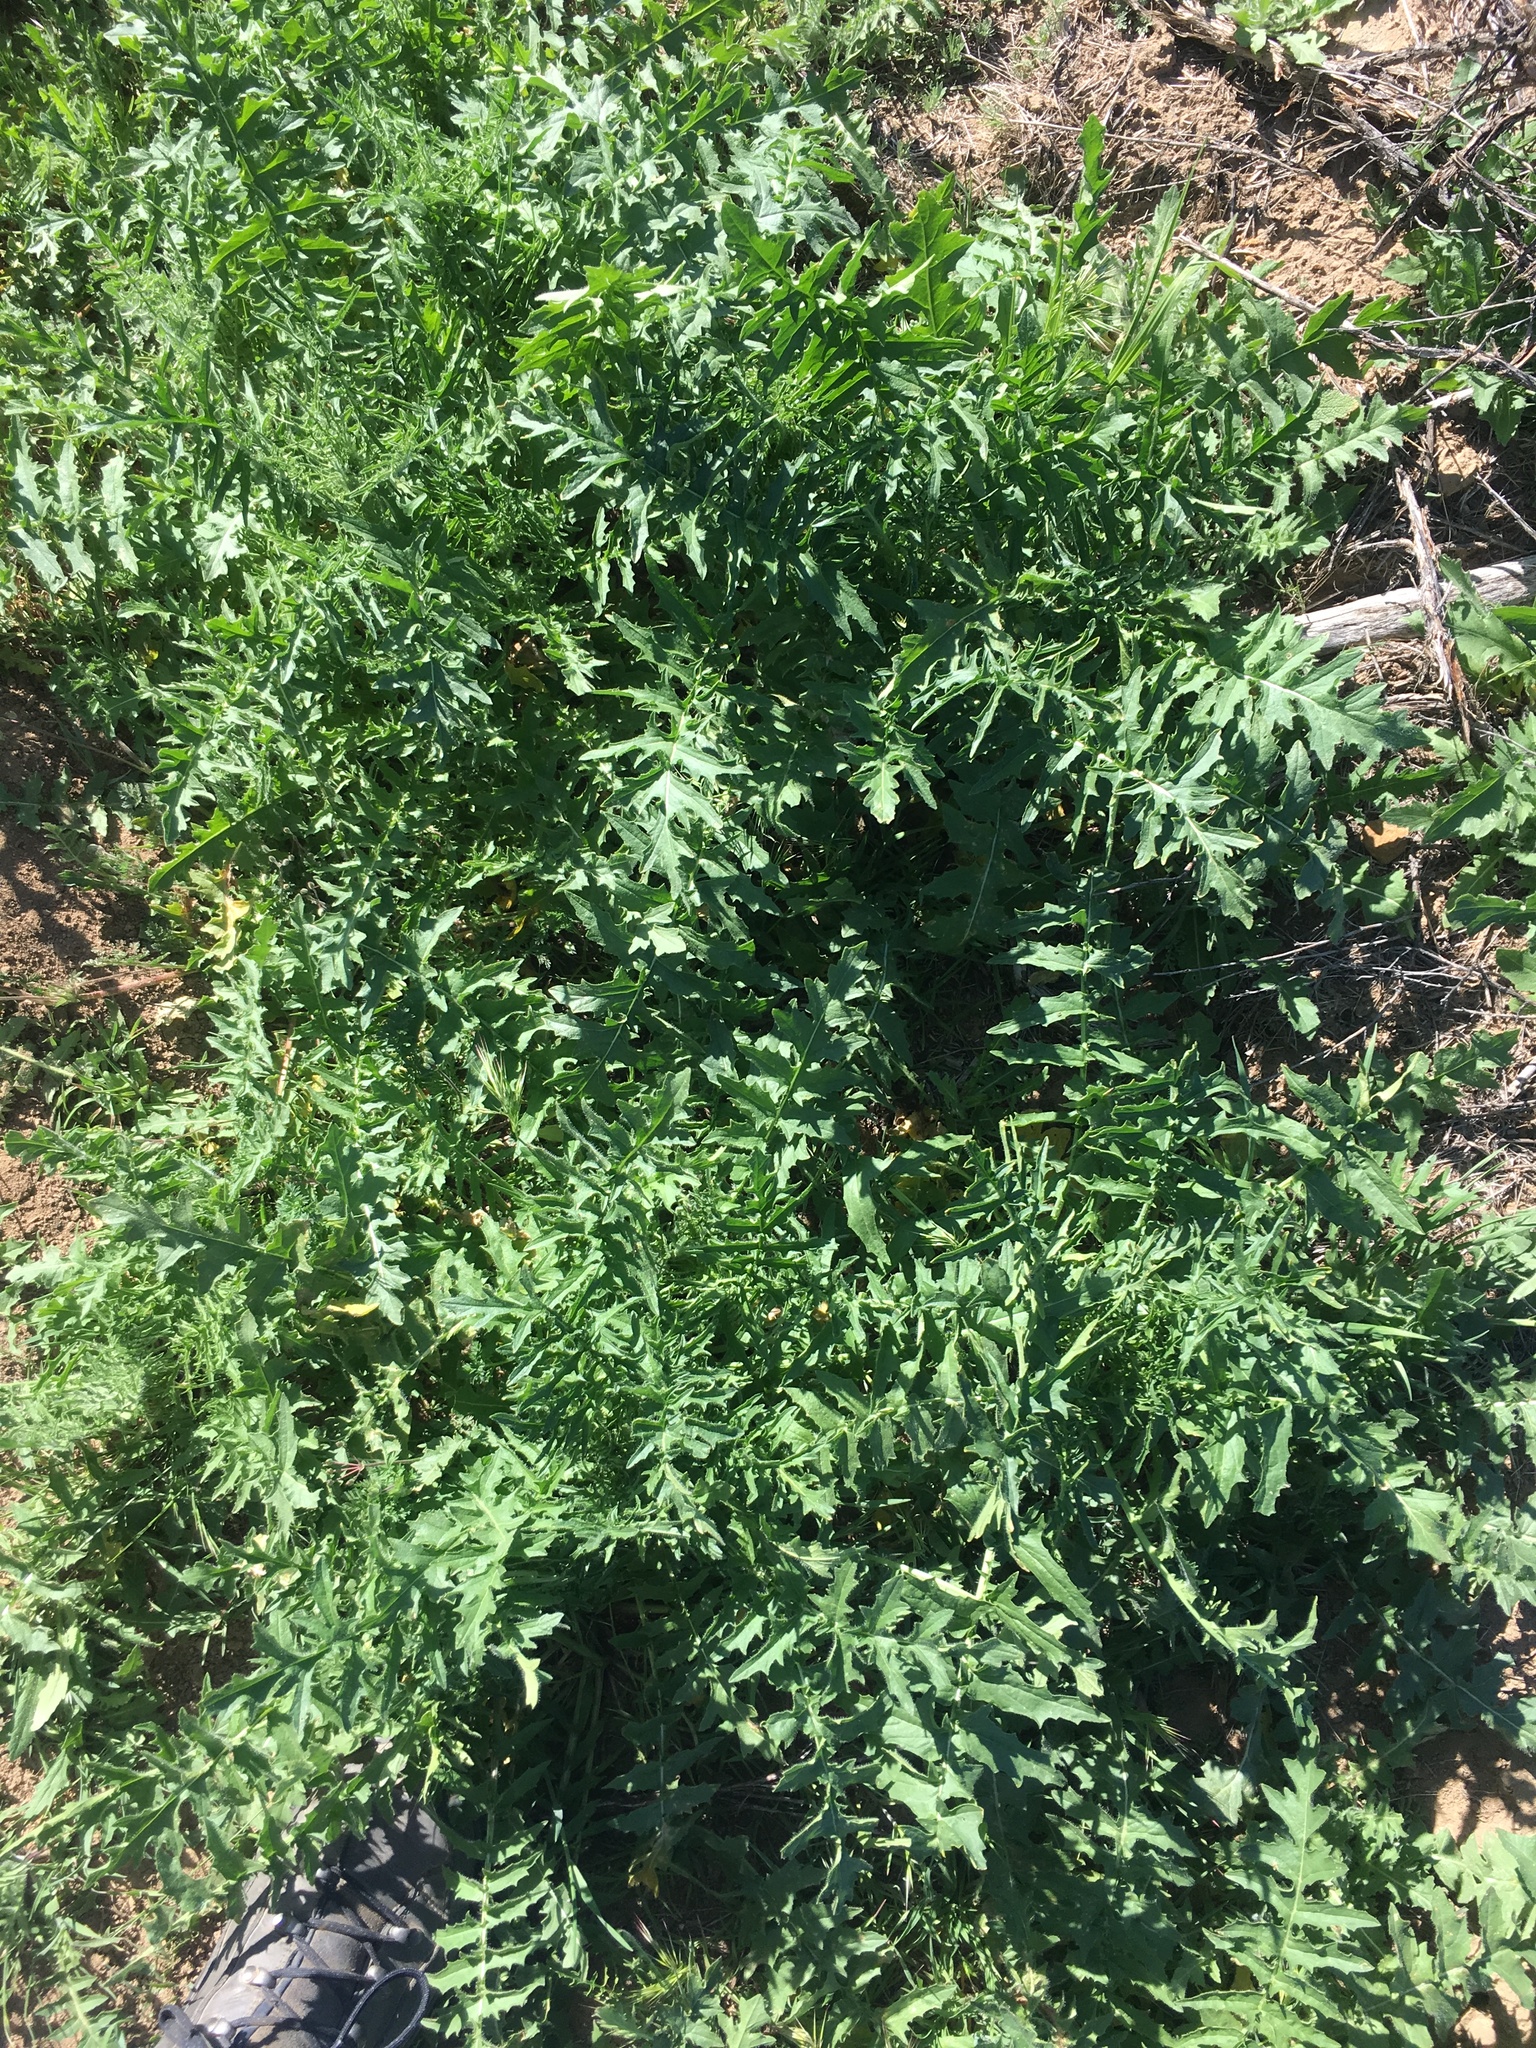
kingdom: Plantae
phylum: Tracheophyta
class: Magnoliopsida
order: Brassicales
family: Brassicaceae
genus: Sisymbrium
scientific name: Sisymbrium altissimum
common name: Tall rocket
